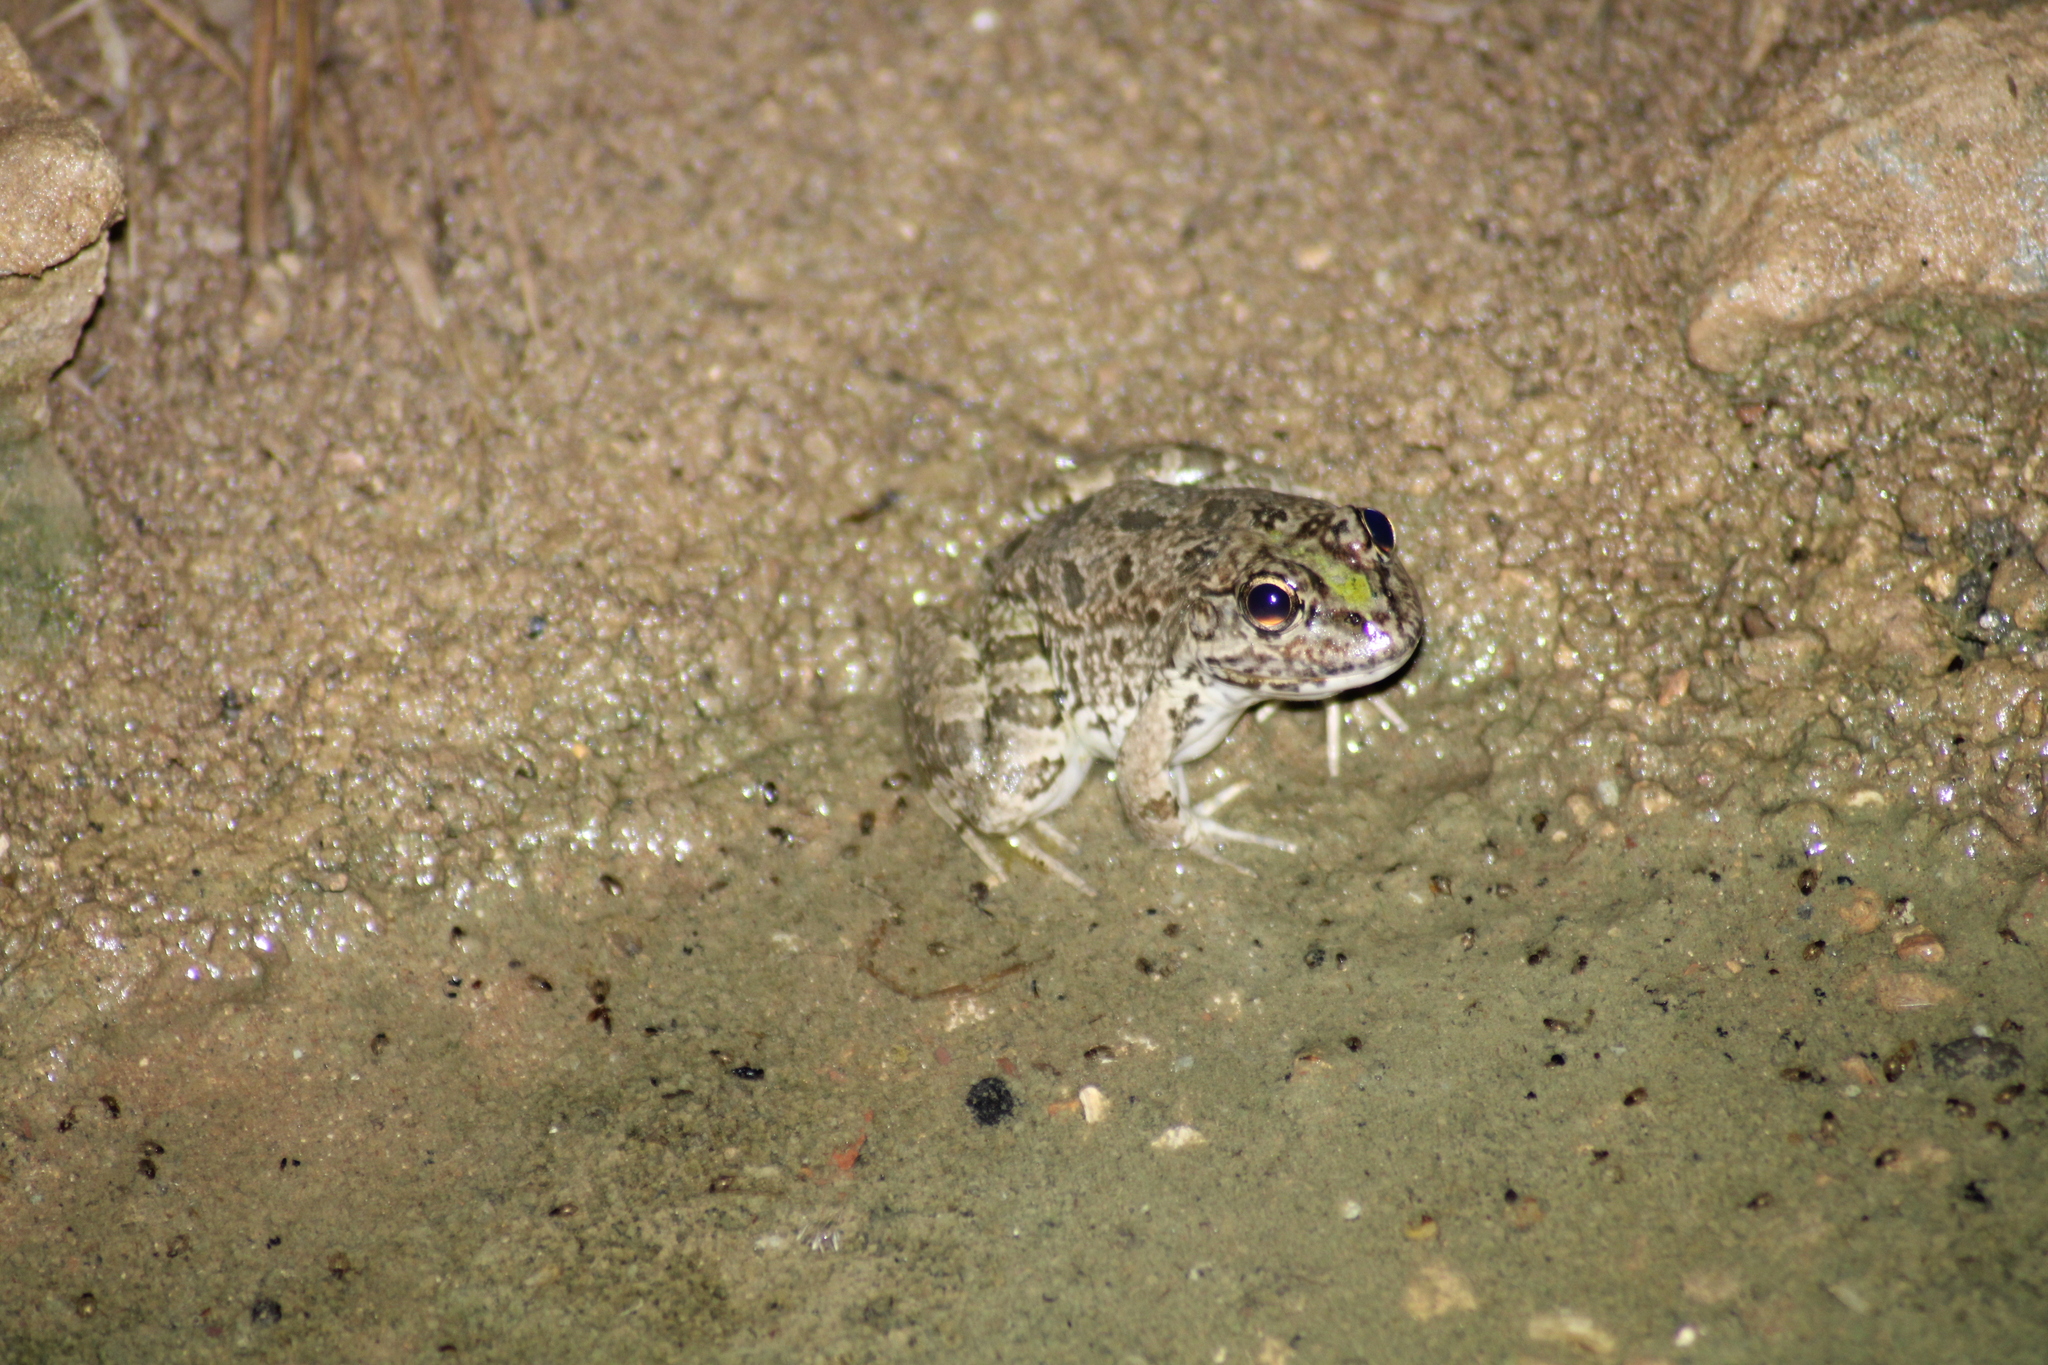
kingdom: Animalia
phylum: Chordata
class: Amphibia
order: Anura
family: Ranidae
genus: Pelophylax
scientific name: Pelophylax ridibundus
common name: Marsh frog
